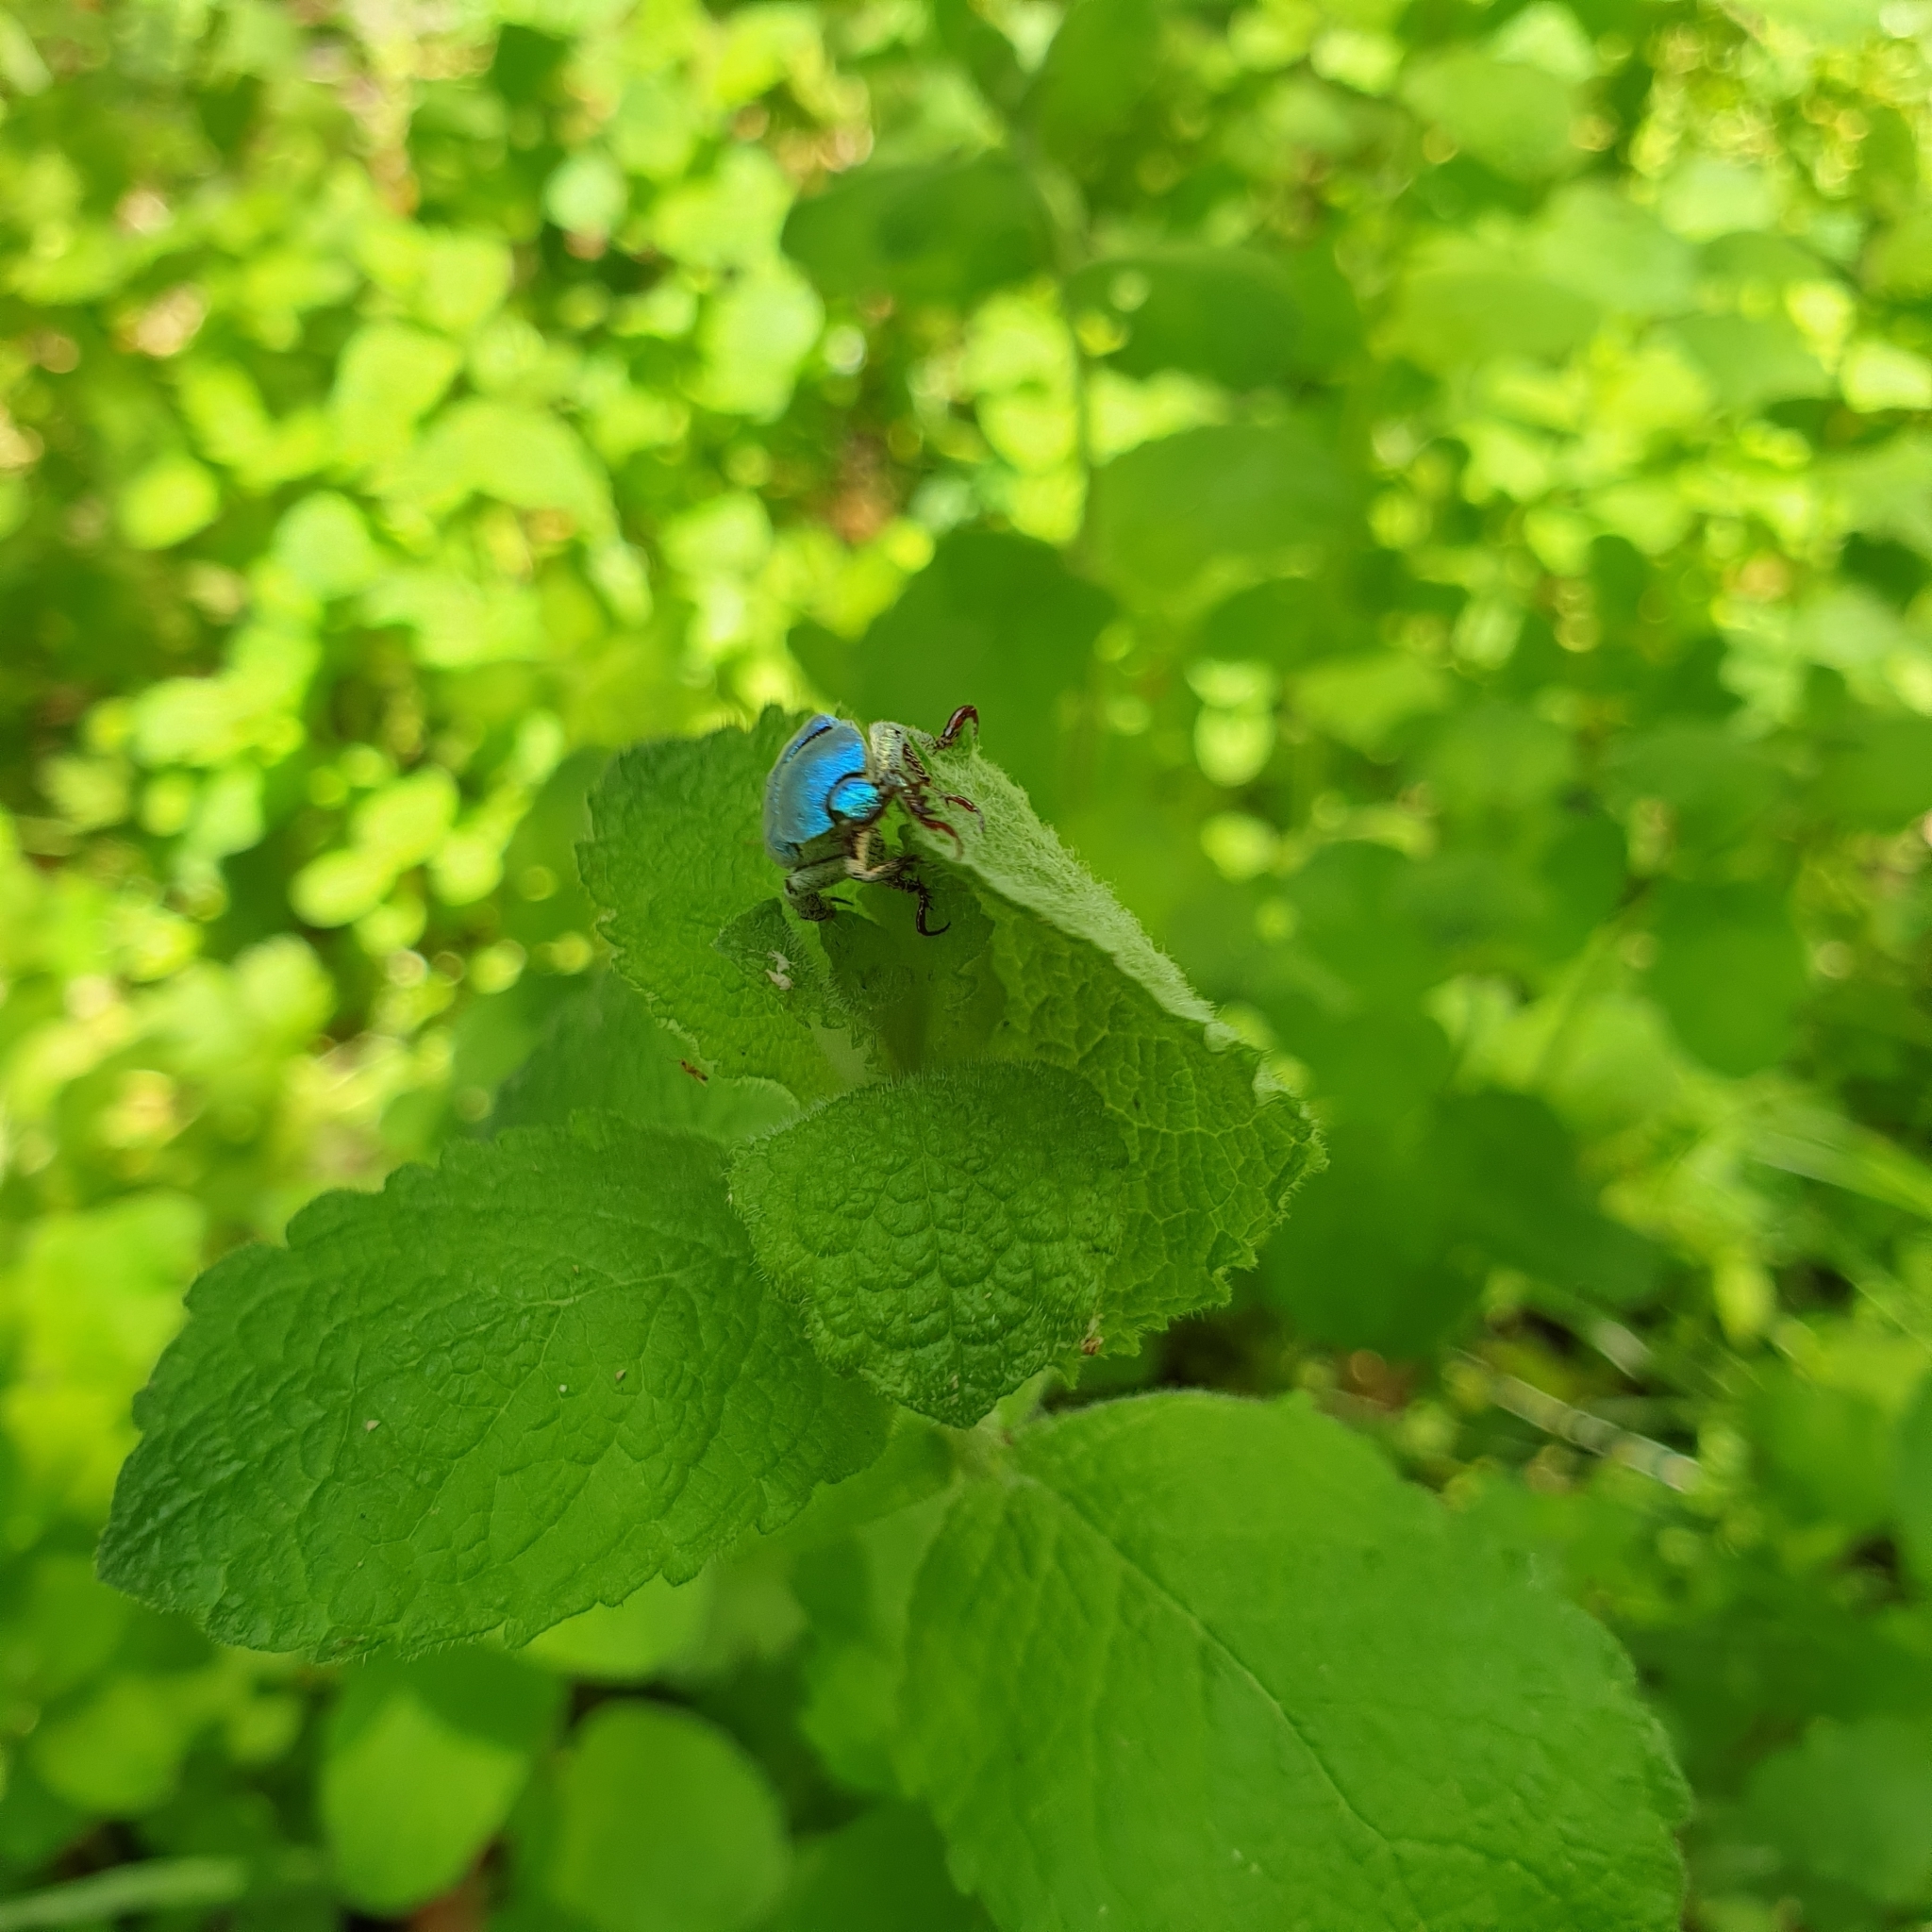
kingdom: Animalia
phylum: Arthropoda
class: Insecta
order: Coleoptera
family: Scarabaeidae
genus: Hoplia
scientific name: Hoplia coerulea
